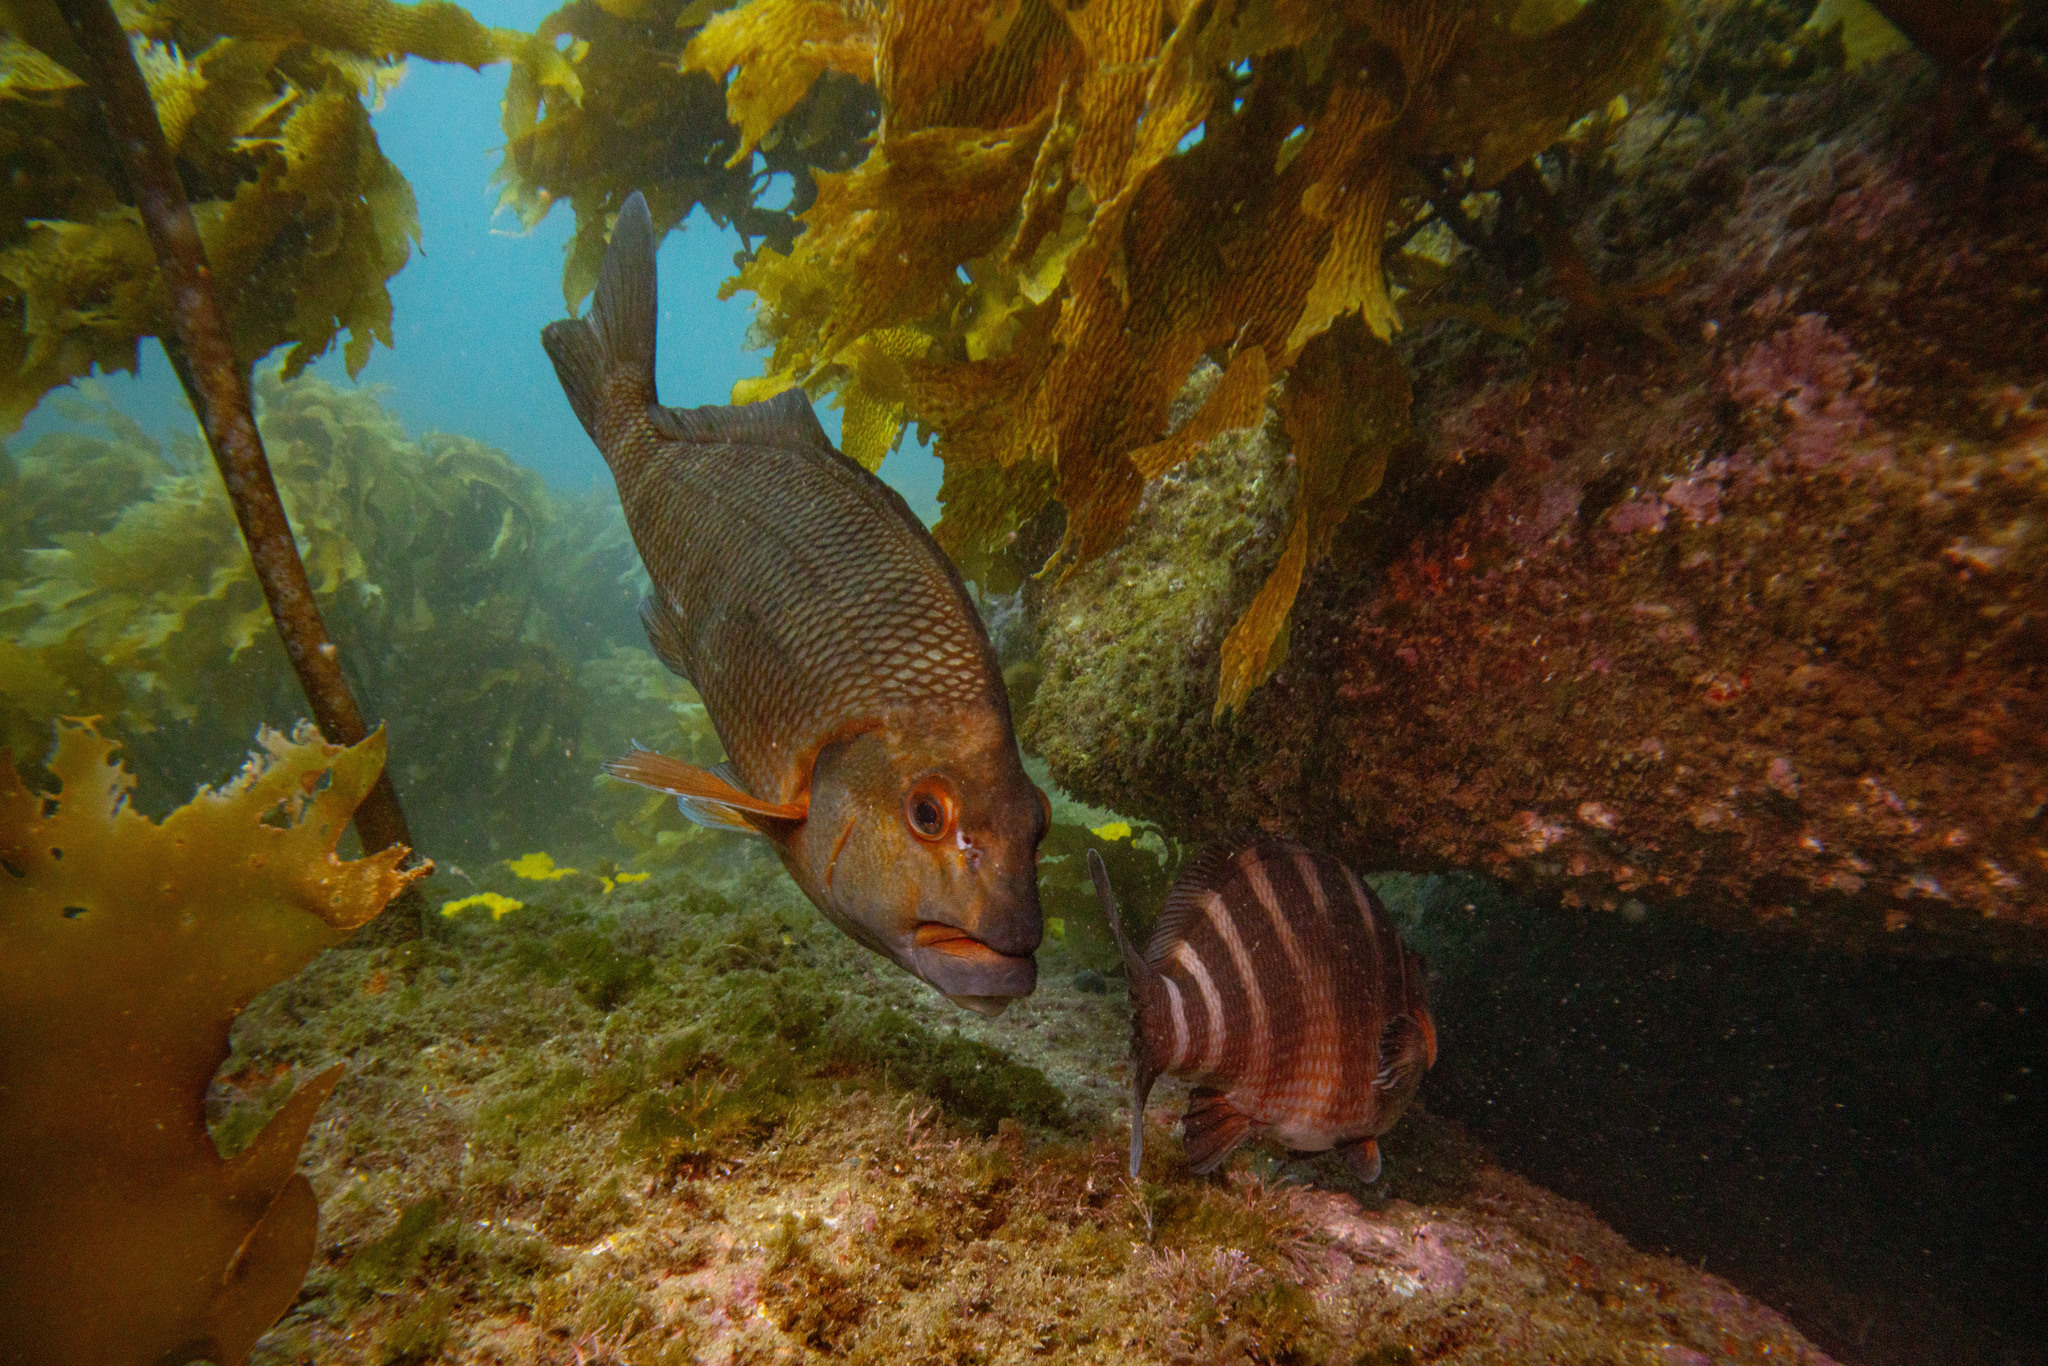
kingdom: Animalia
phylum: Chordata
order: Perciformes
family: Cheilodactylidae
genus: Cheilodactylus
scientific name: Cheilodactylus spectabilis
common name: Red moki
